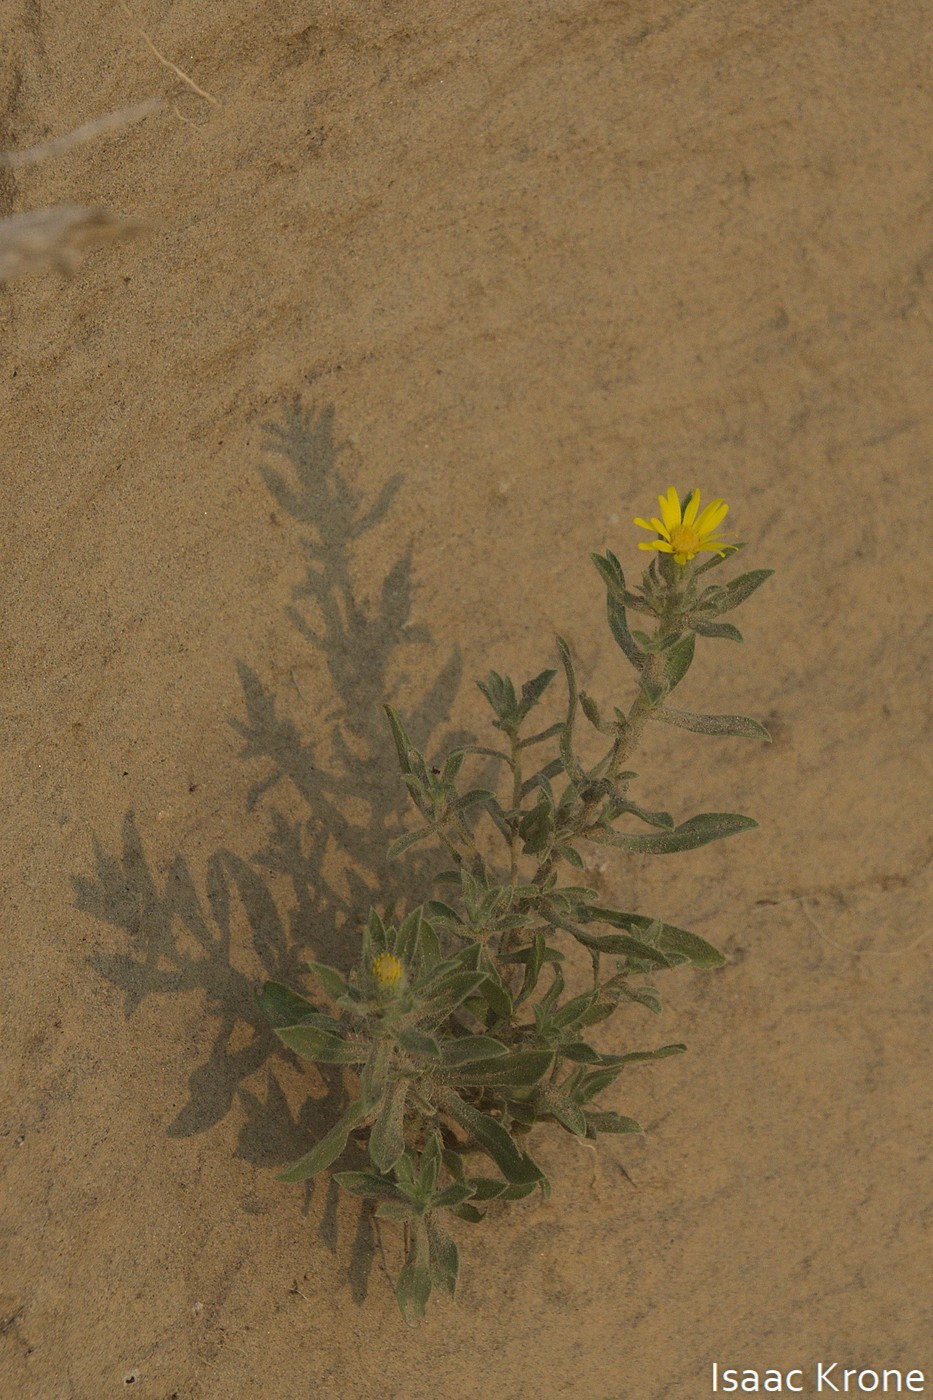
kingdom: Plantae
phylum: Tracheophyta
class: Magnoliopsida
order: Asterales
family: Asteraceae
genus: Heterotheca
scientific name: Heterotheca villosa
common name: Hairy false goldenaster
